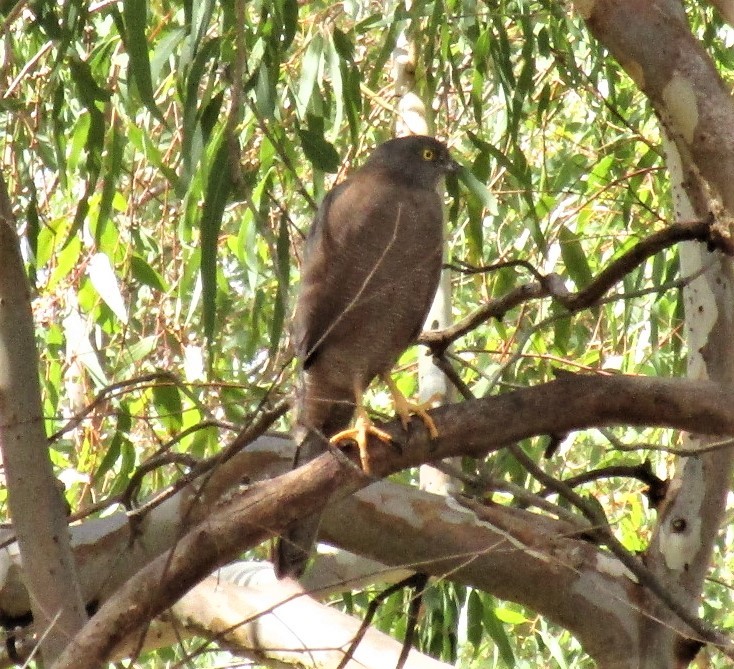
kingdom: Animalia
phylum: Chordata
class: Aves
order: Accipitriformes
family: Accipitridae
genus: Accipiter
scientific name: Accipiter cirrocephalus
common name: Collared sparrowhawk
